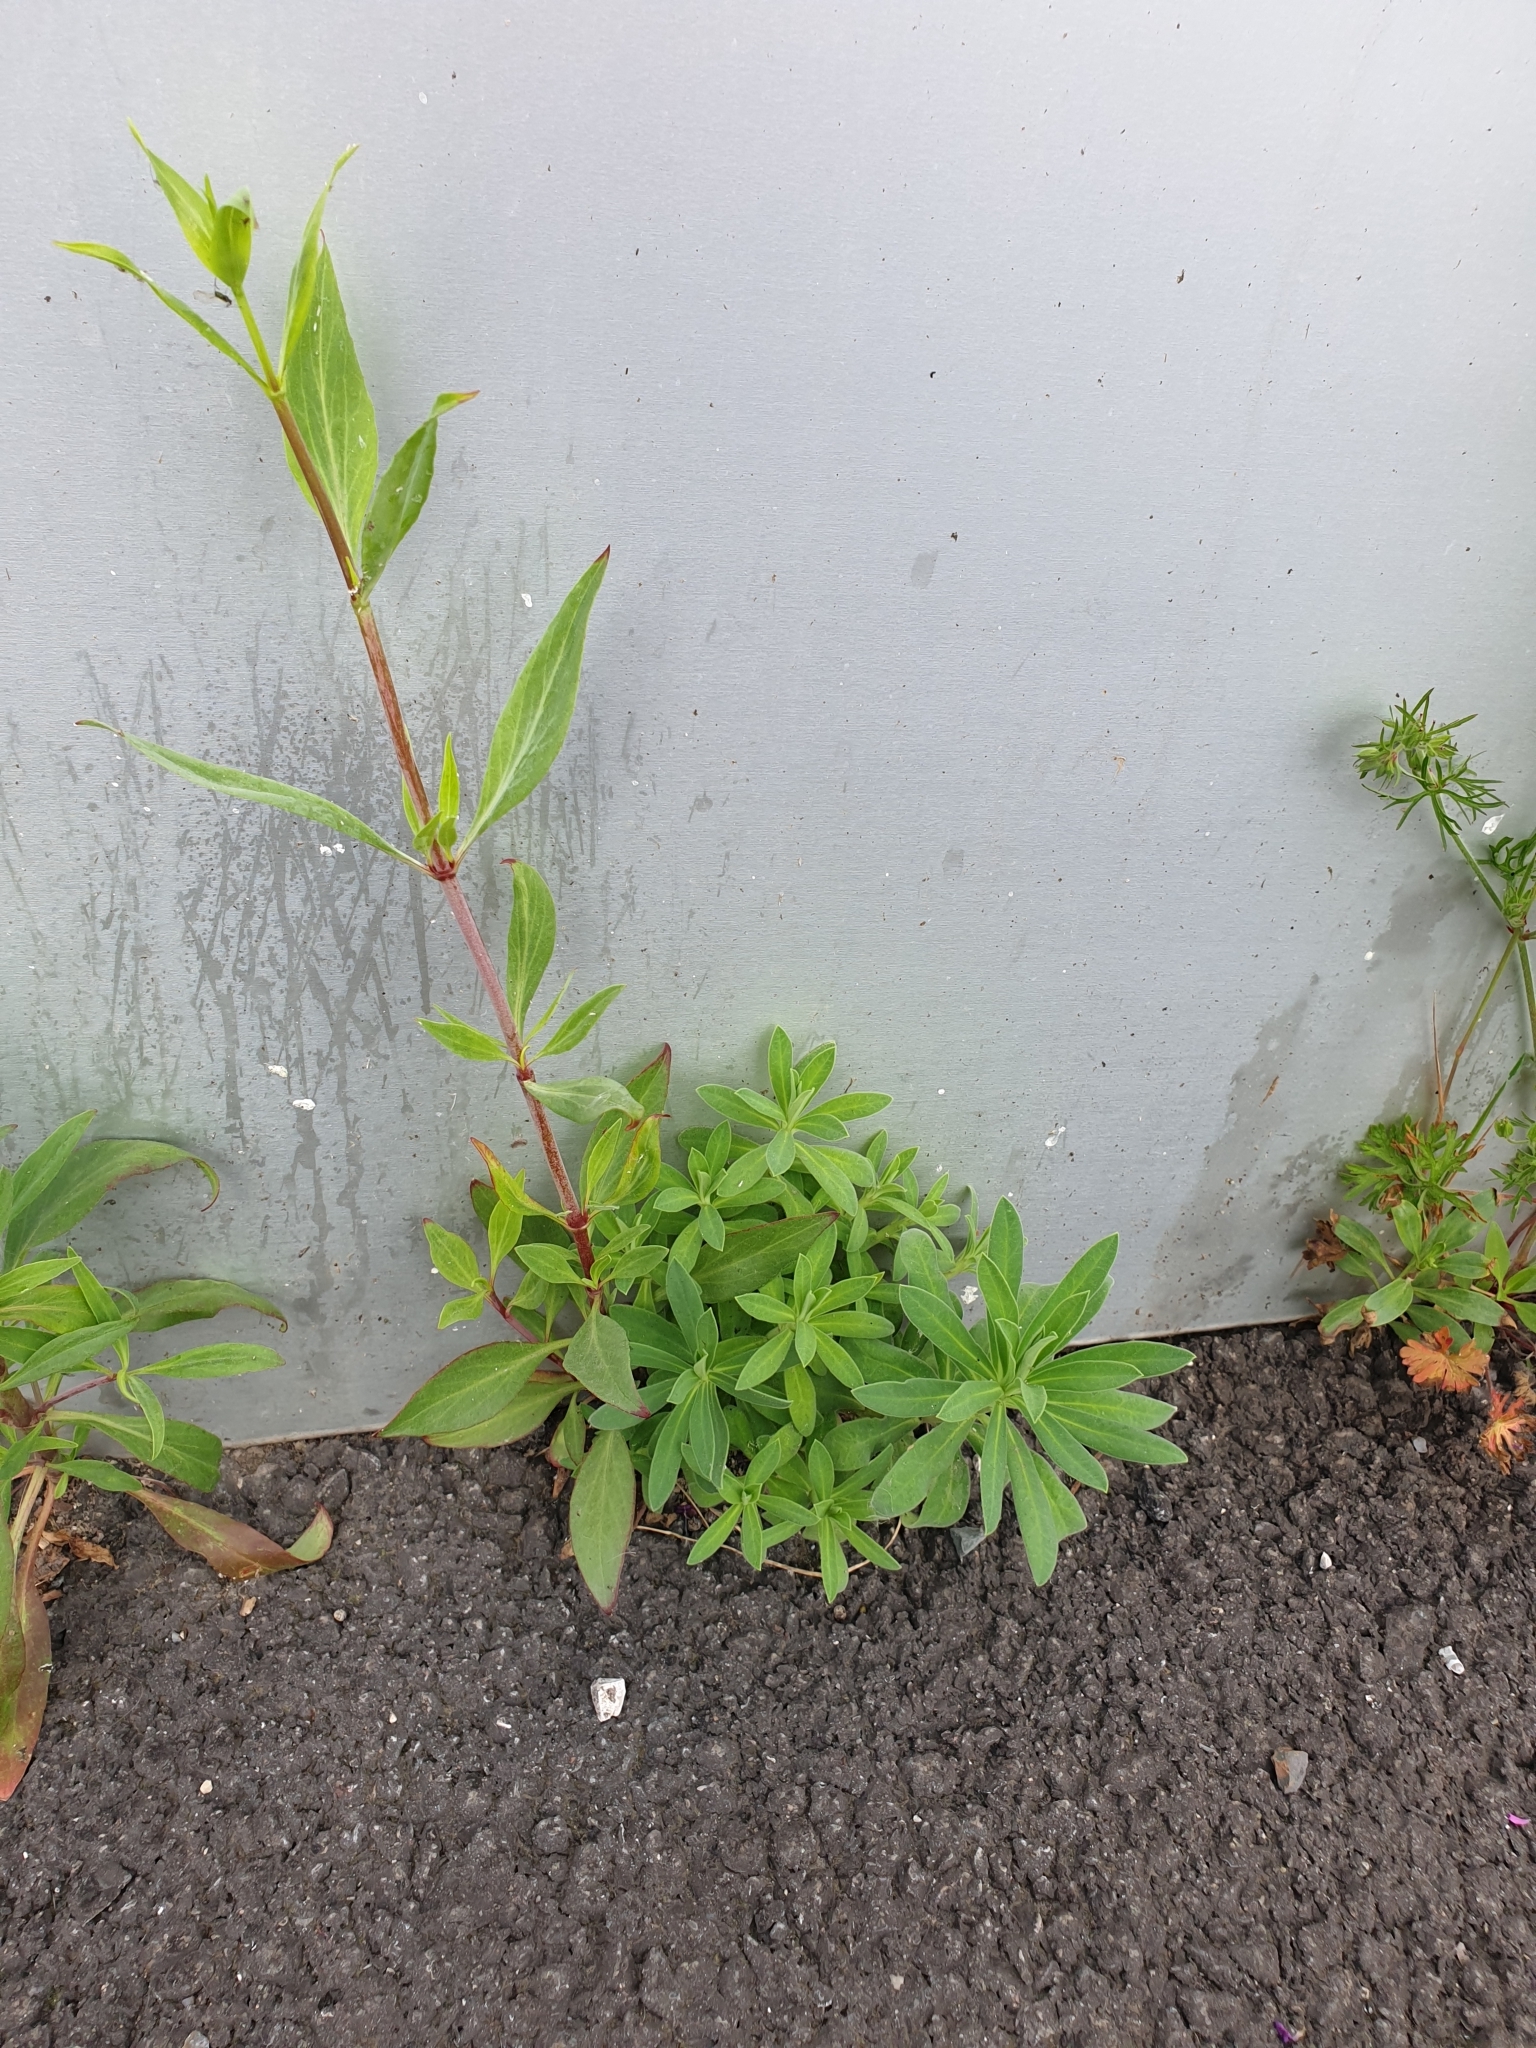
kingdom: Plantae
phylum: Tracheophyta
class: Magnoliopsida
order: Dipsacales
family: Caprifoliaceae
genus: Centranthus
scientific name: Centranthus ruber
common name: Red valerian
